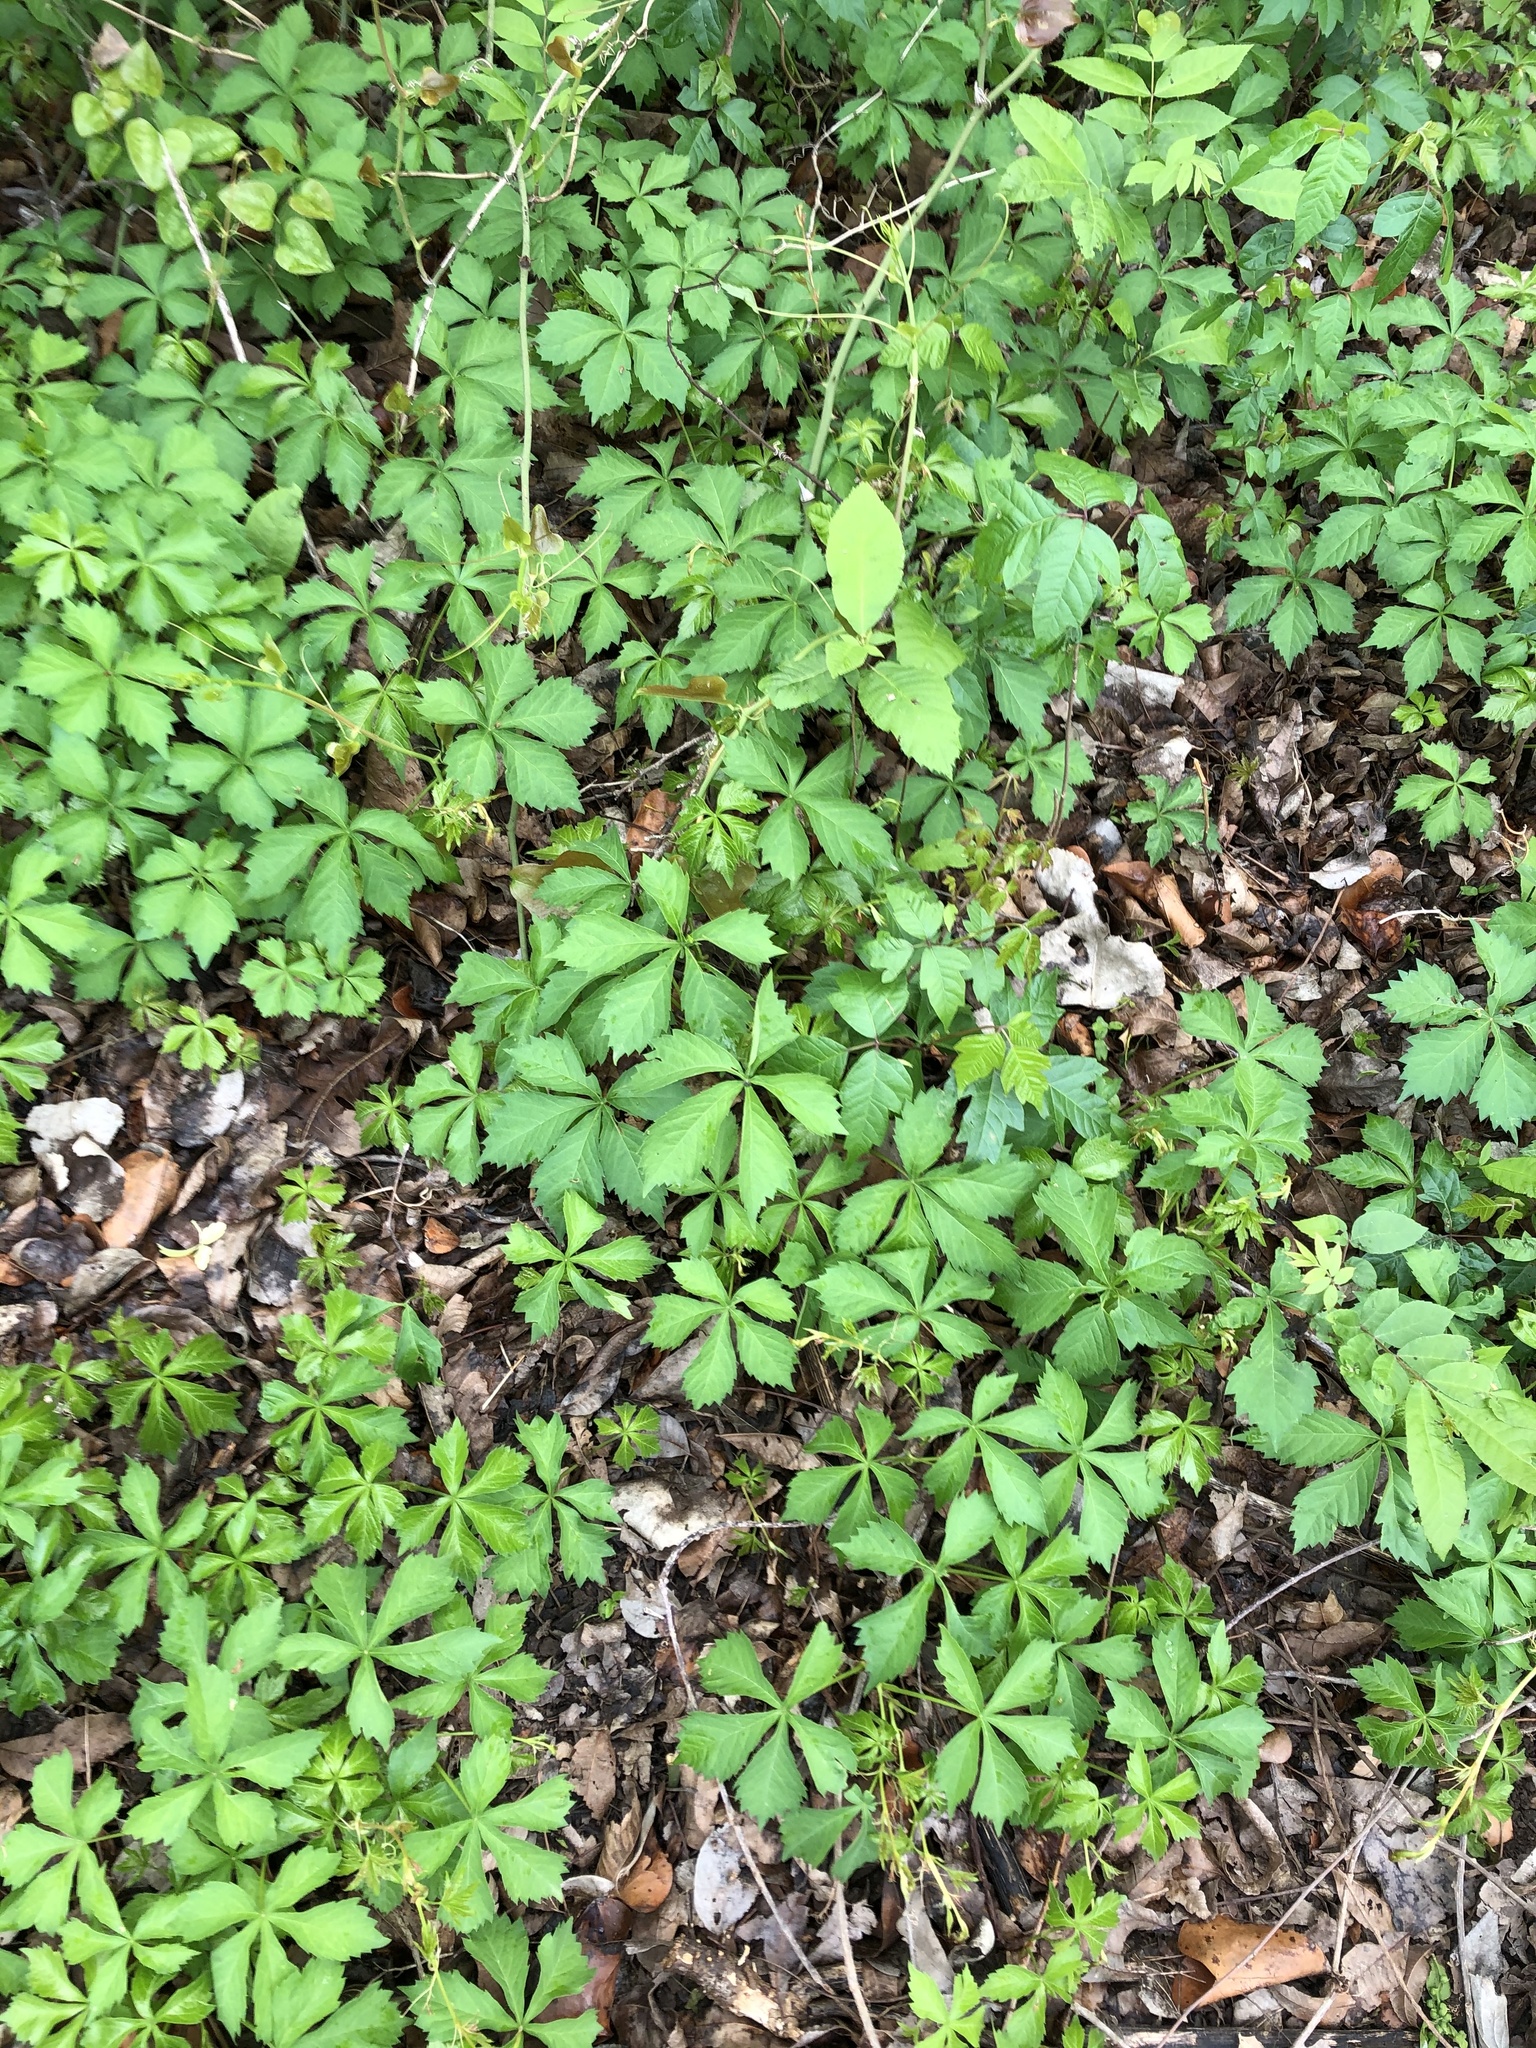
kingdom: Plantae
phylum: Tracheophyta
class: Magnoliopsida
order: Vitales
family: Vitaceae
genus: Parthenocissus
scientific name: Parthenocissus quinquefolia
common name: Virginia-creeper
